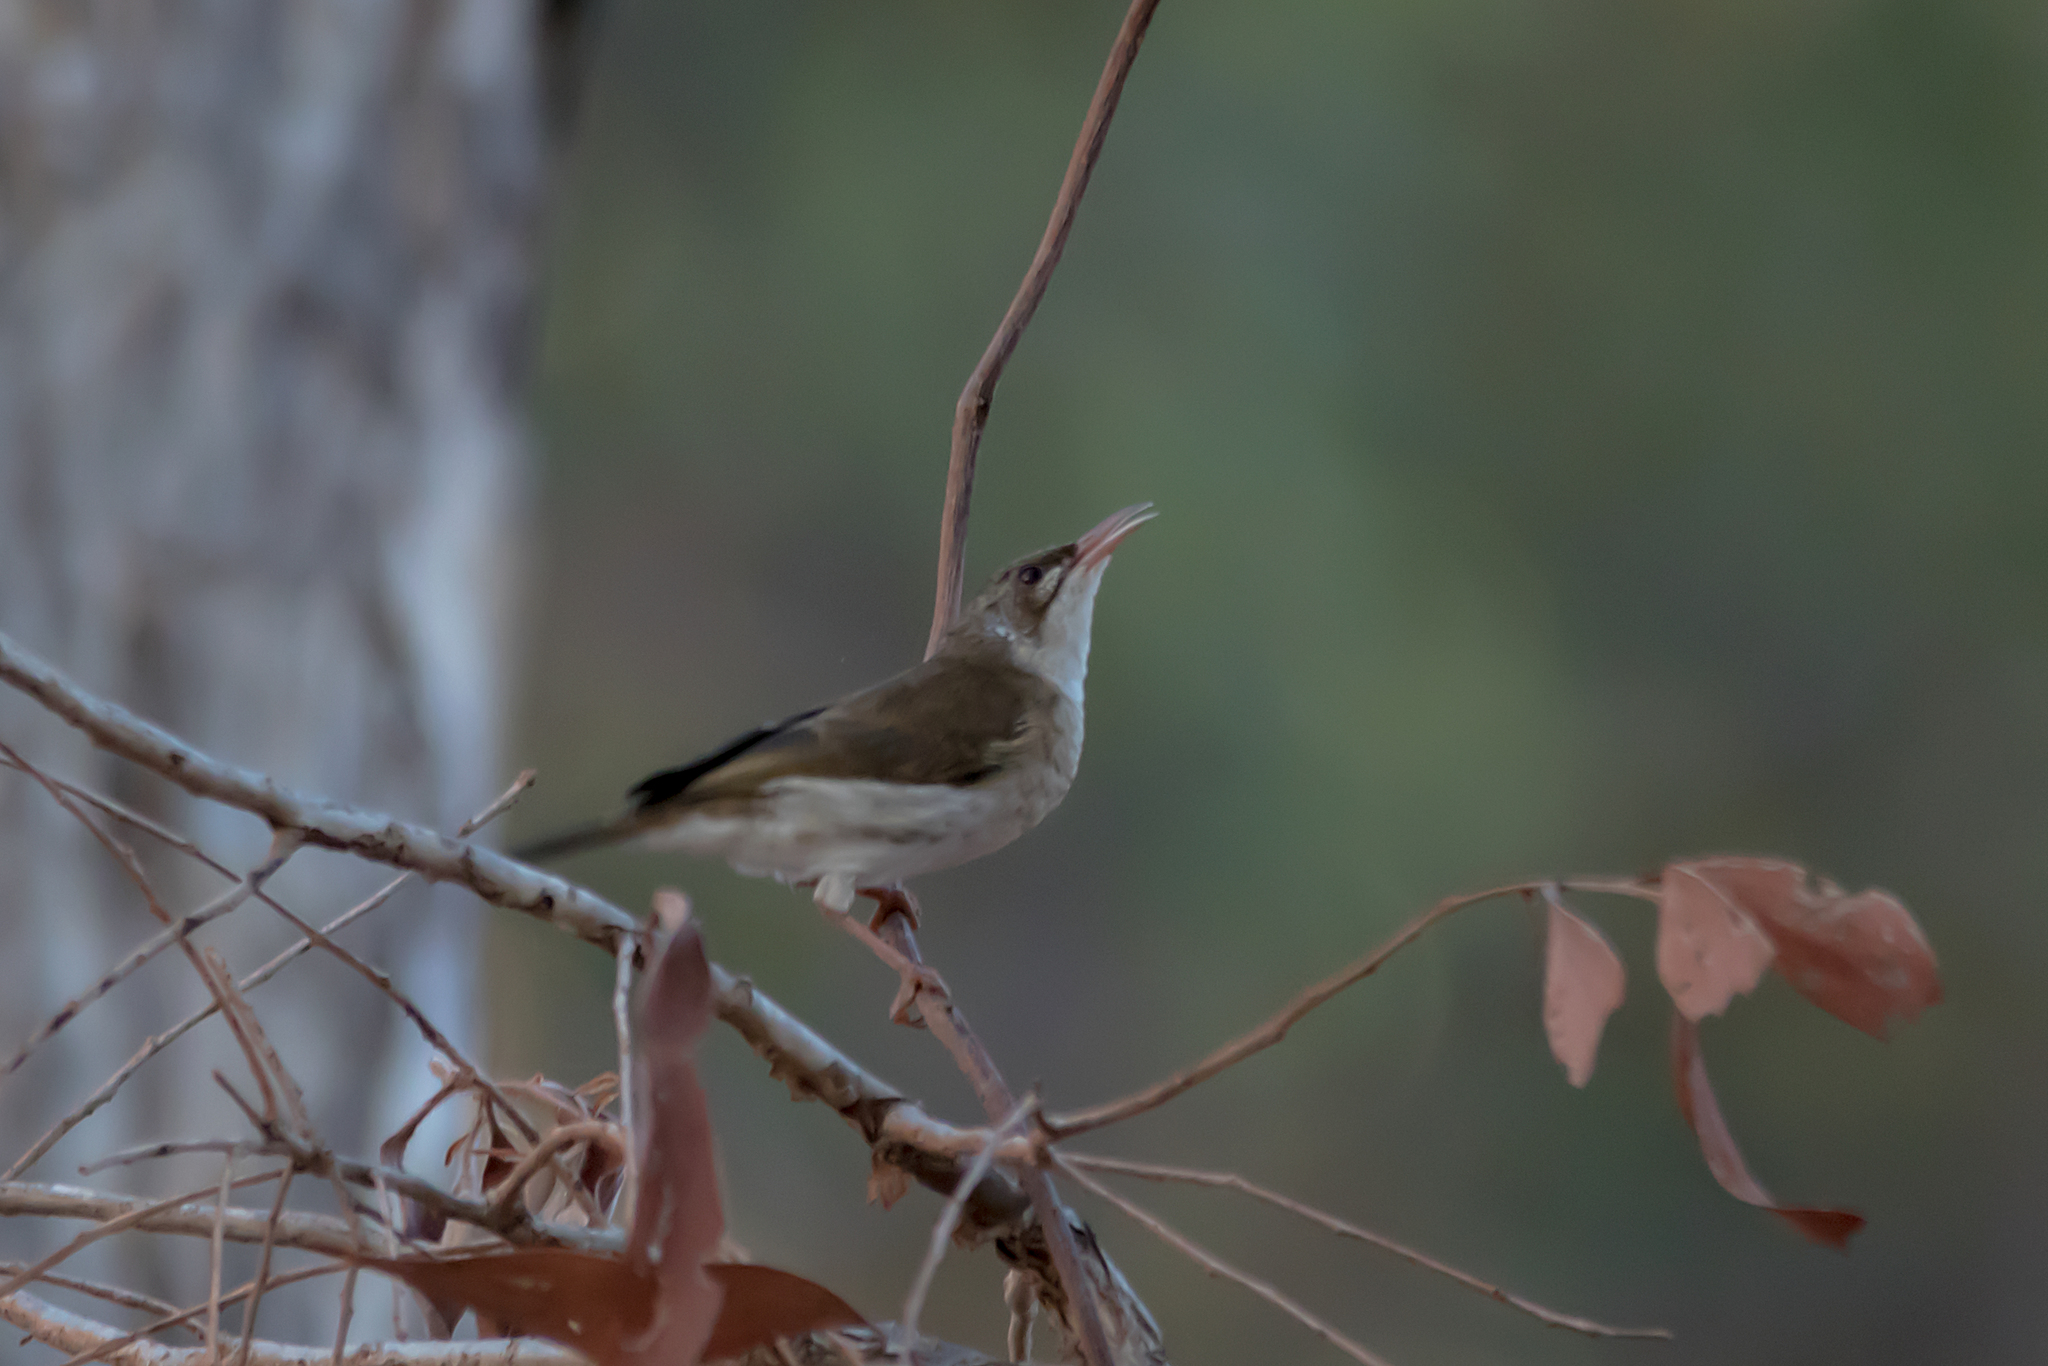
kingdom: Animalia
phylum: Chordata
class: Aves
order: Passeriformes
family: Meliphagidae
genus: Ramsayornis
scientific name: Ramsayornis modestus
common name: Brown-backed honeyeater
